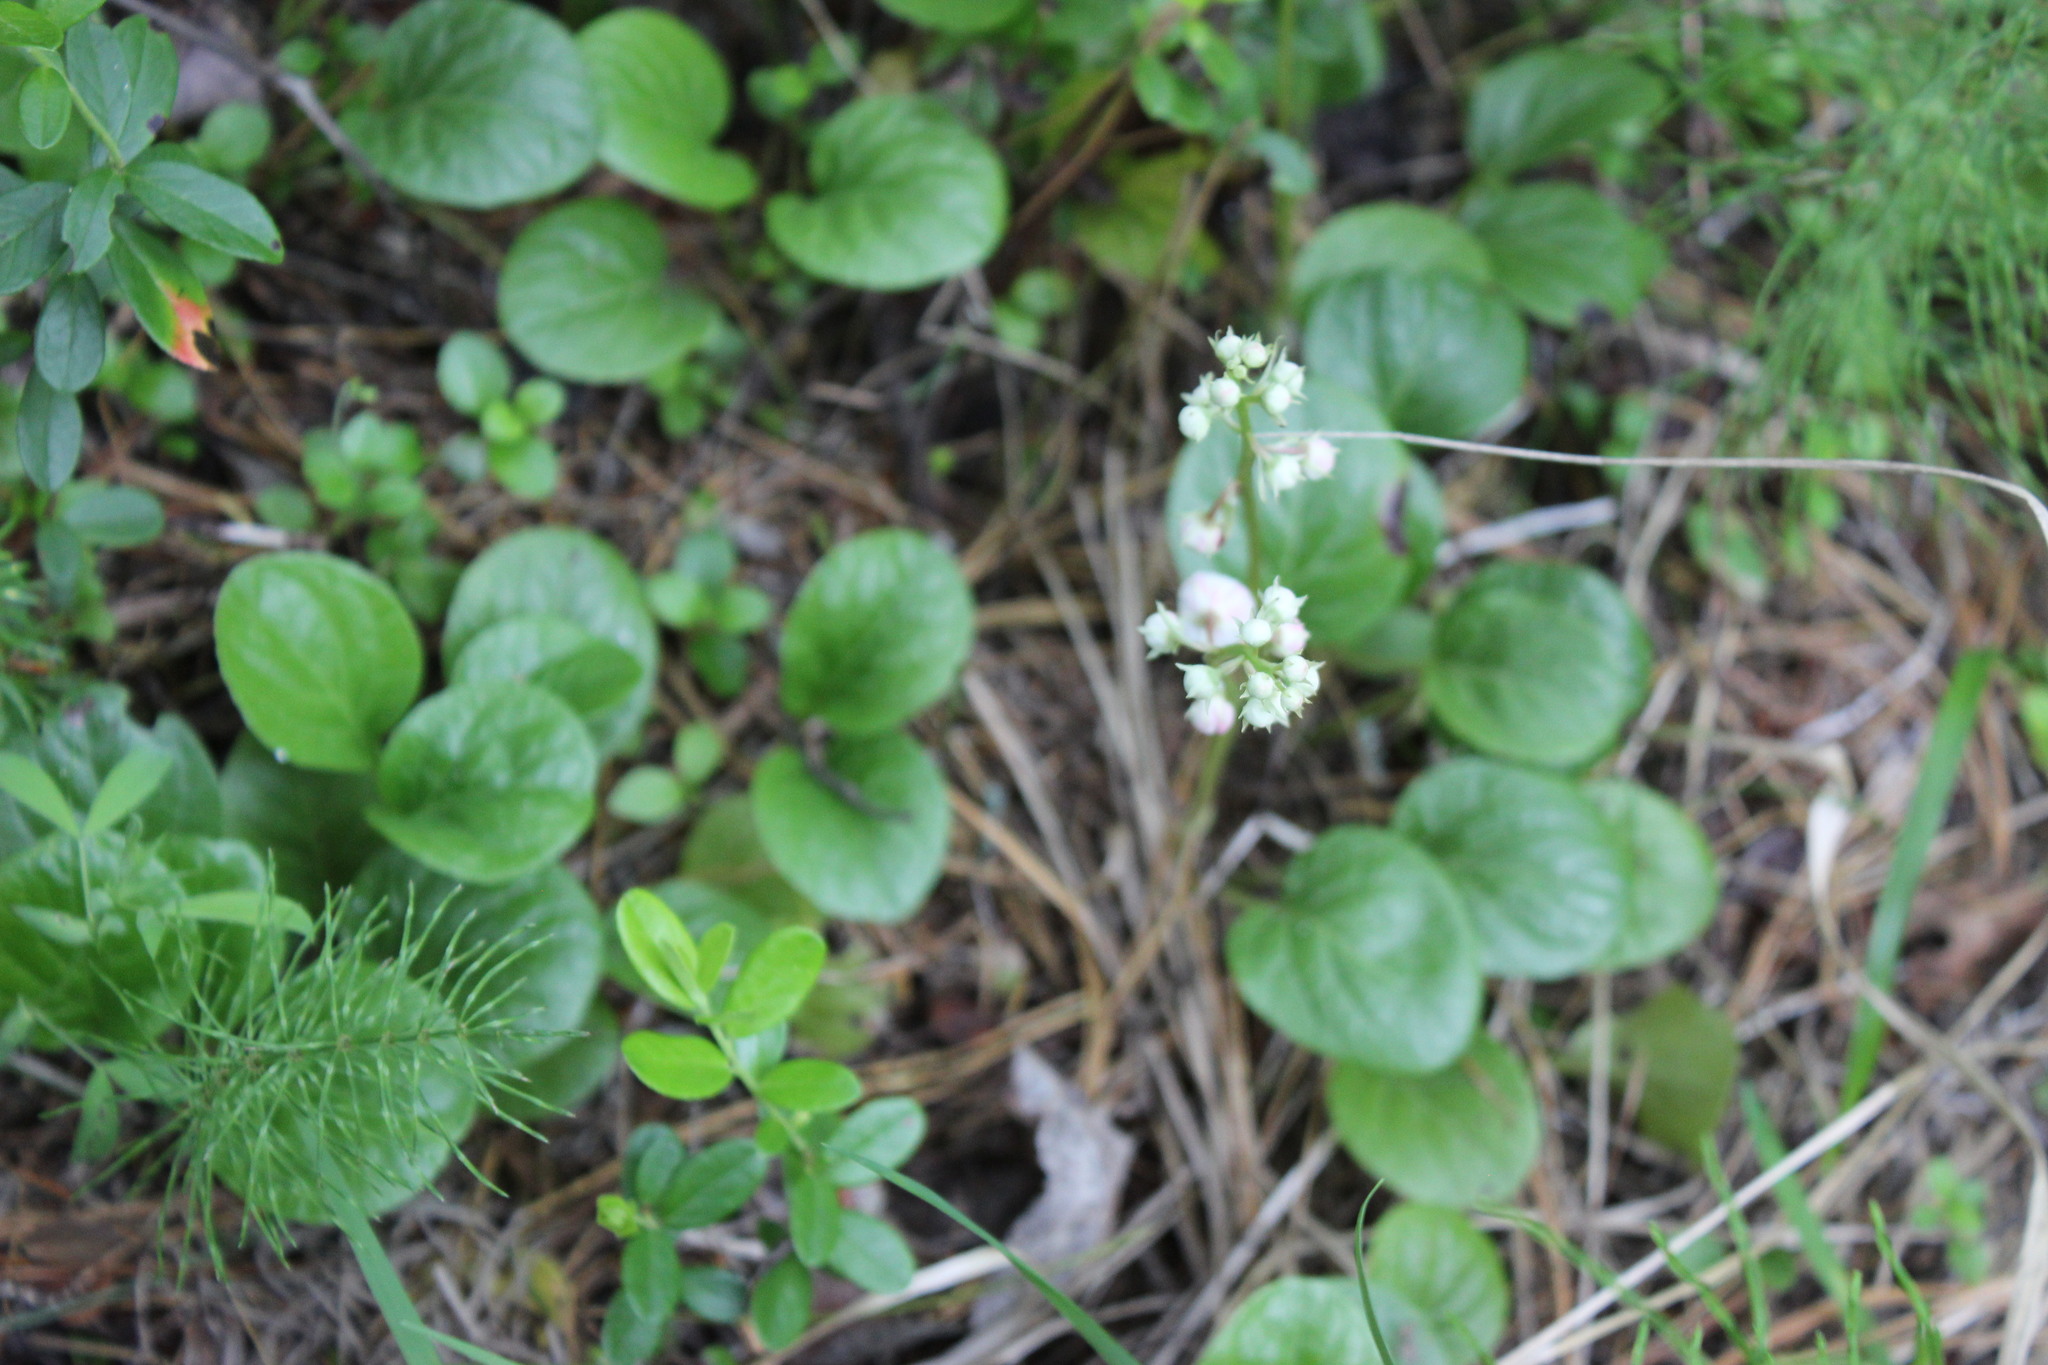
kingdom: Plantae
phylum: Tracheophyta
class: Magnoliopsida
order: Ericales
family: Ericaceae
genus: Pyrola
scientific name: Pyrola rotundifolia
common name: Round-leaved wintergreen
